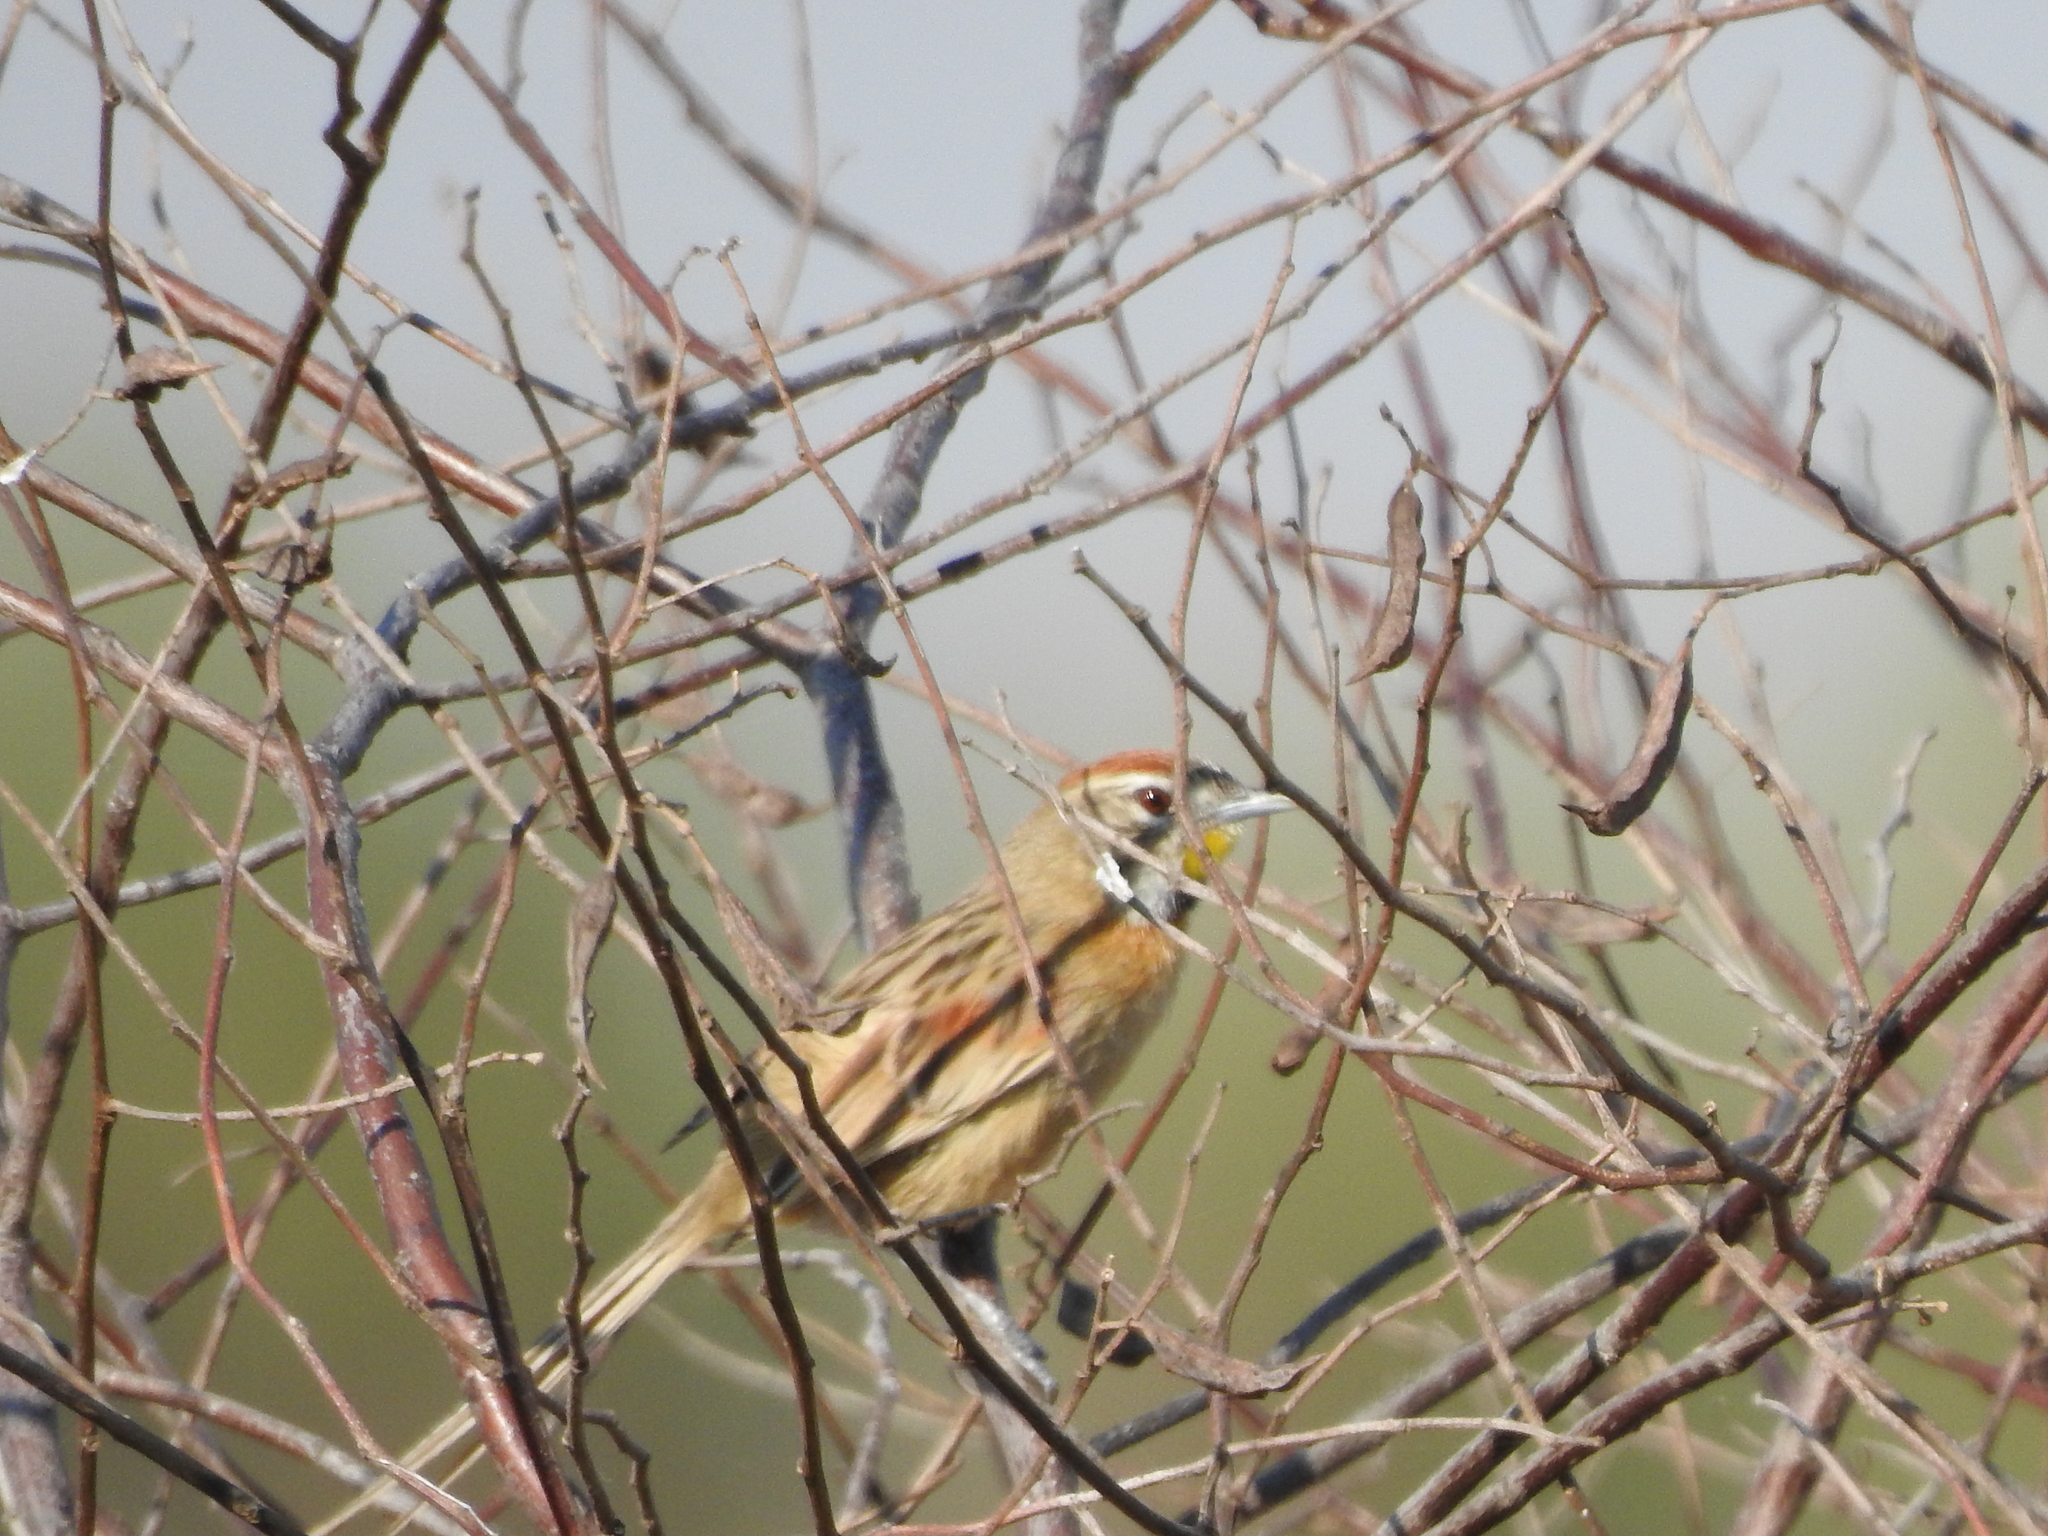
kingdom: Animalia
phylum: Chordata
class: Aves
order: Passeriformes
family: Furnariidae
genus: Schoeniophylax
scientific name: Schoeniophylax phryganophilus
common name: Chotoy spinetail
